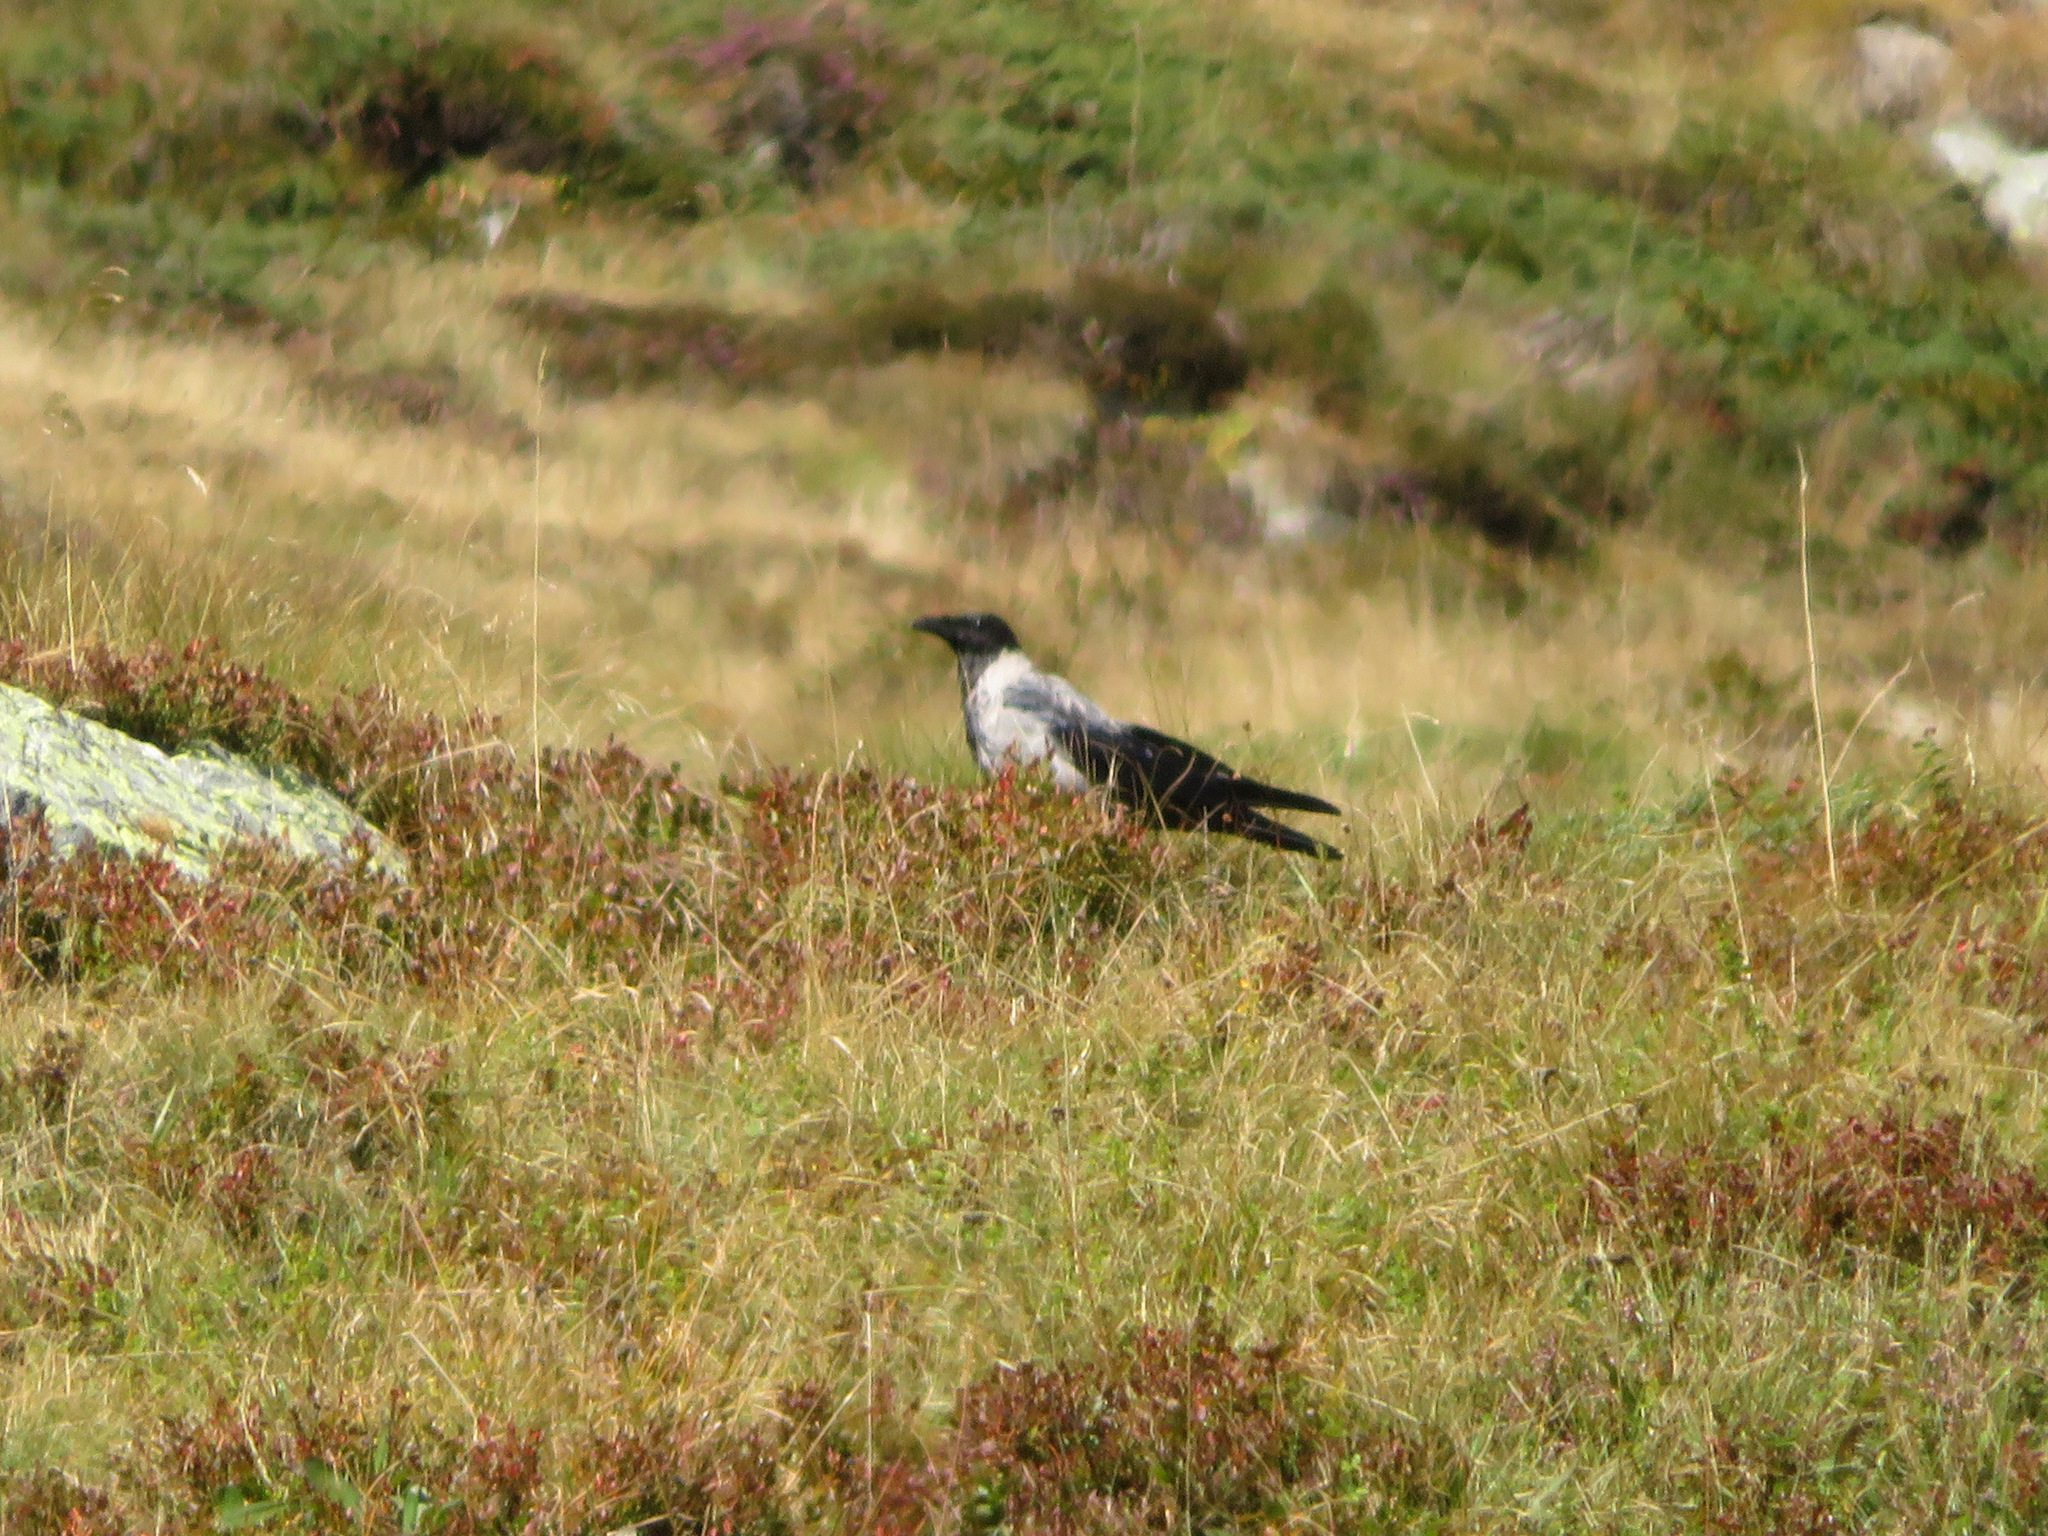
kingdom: Animalia
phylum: Chordata
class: Aves
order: Passeriformes
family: Corvidae
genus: Corvus
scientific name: Corvus cornix
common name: Hooded crow
